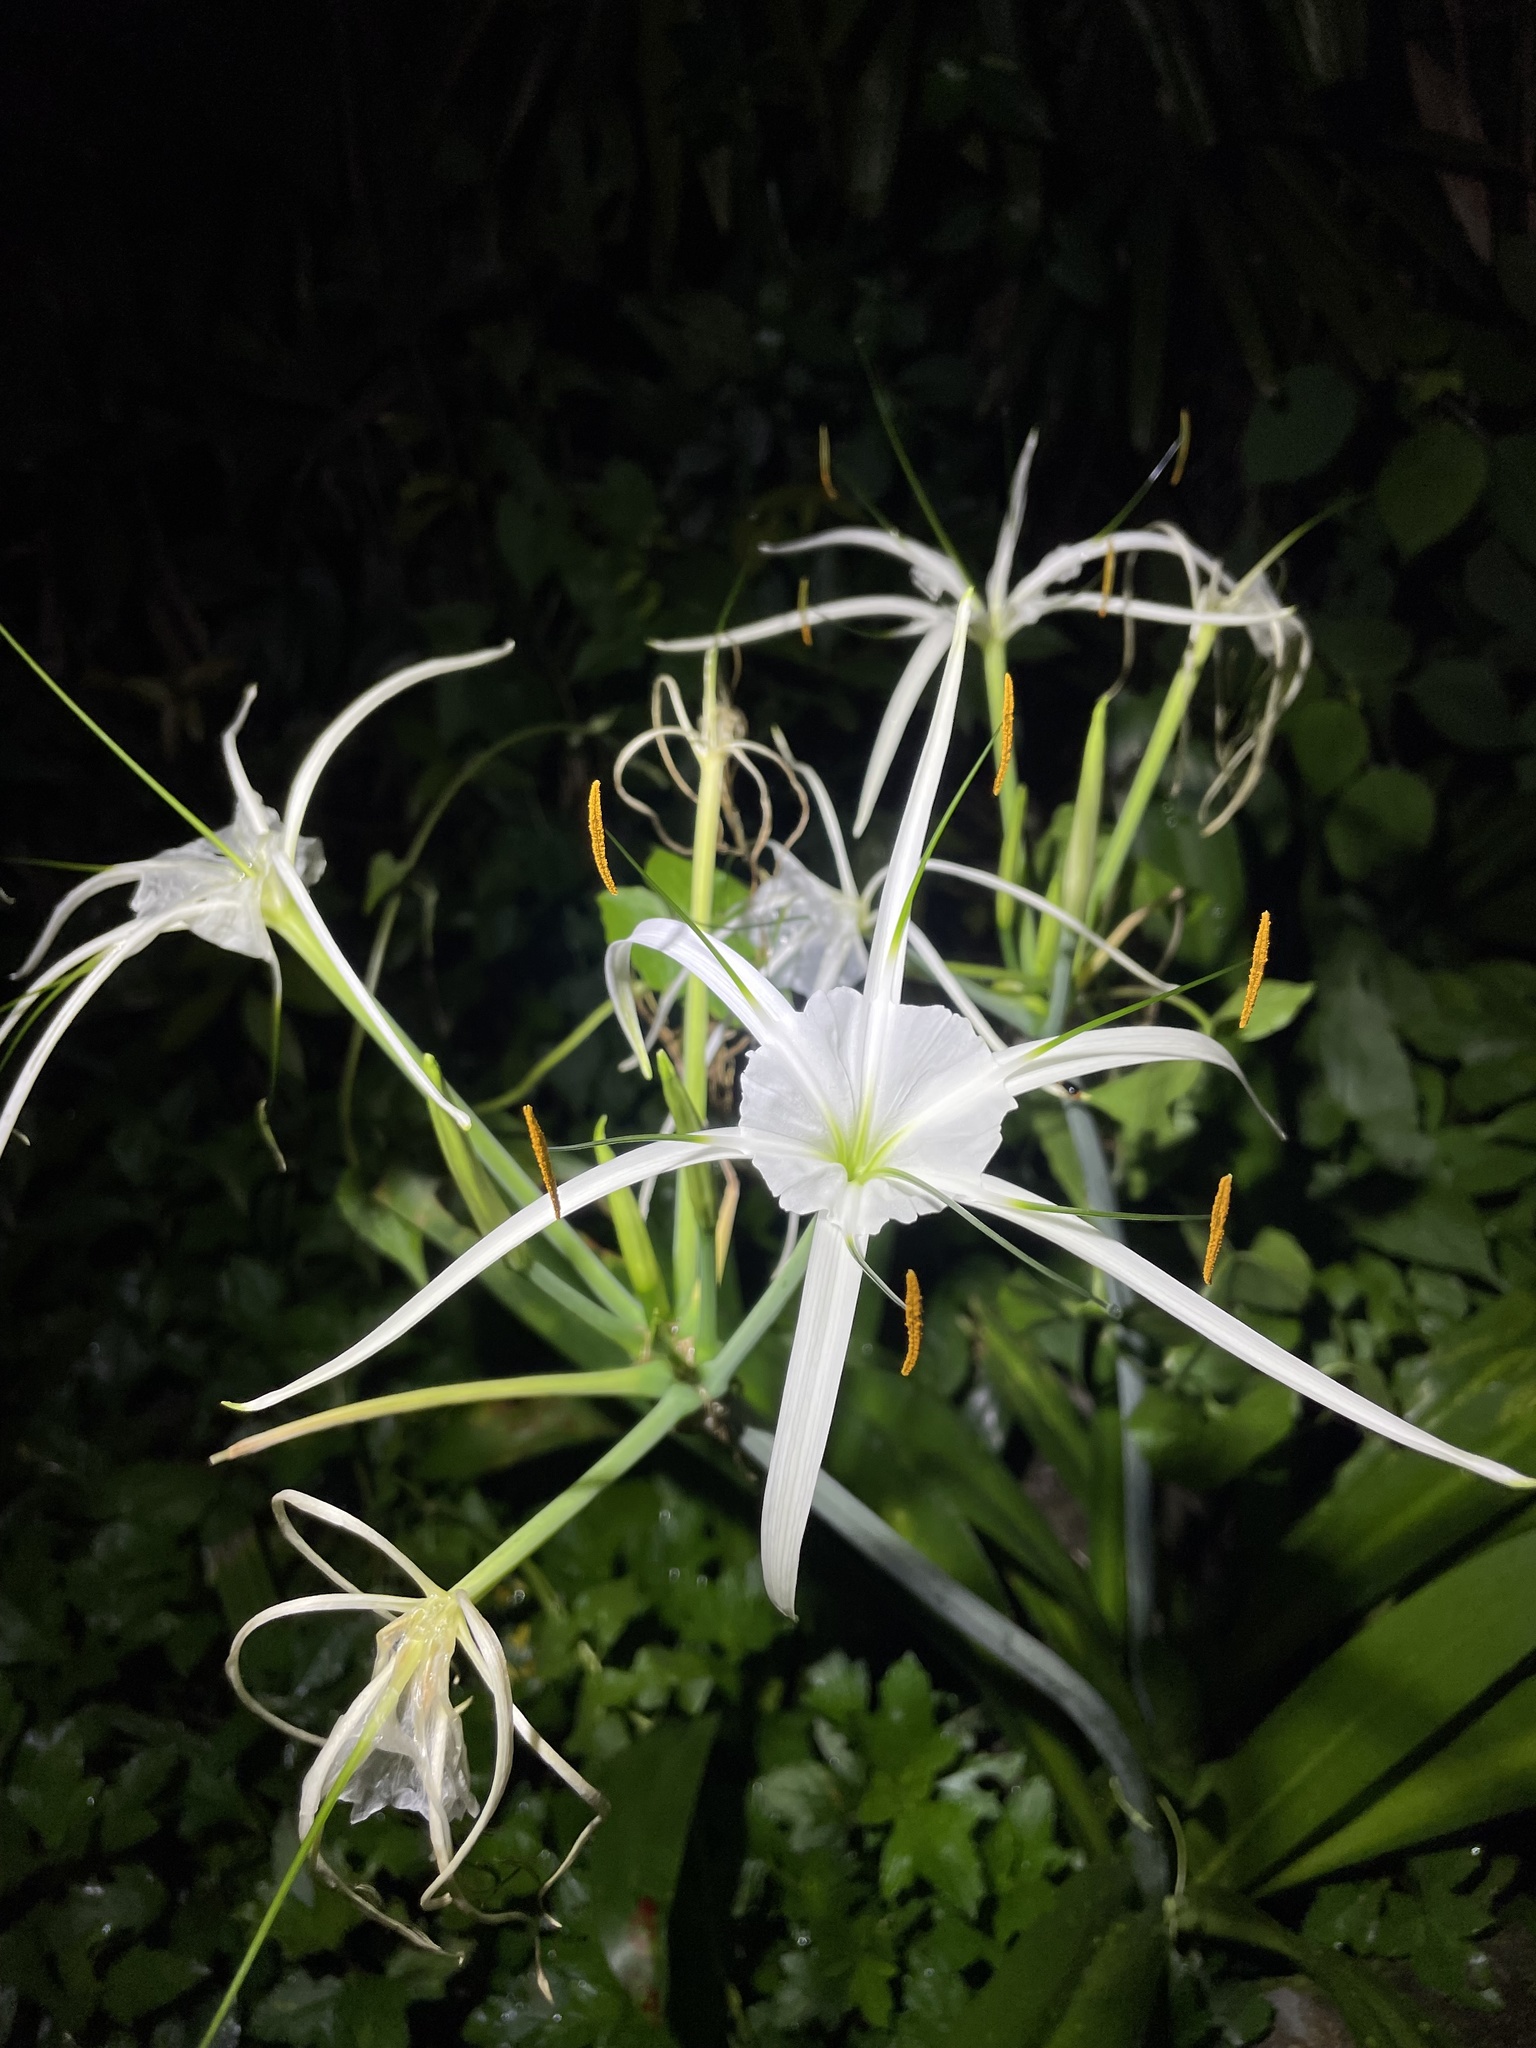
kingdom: Plantae
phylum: Tracheophyta
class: Liliopsida
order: Asparagales
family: Amaryllidaceae
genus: Hymenocallis
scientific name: Hymenocallis littoralis
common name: Beach spiderlily
